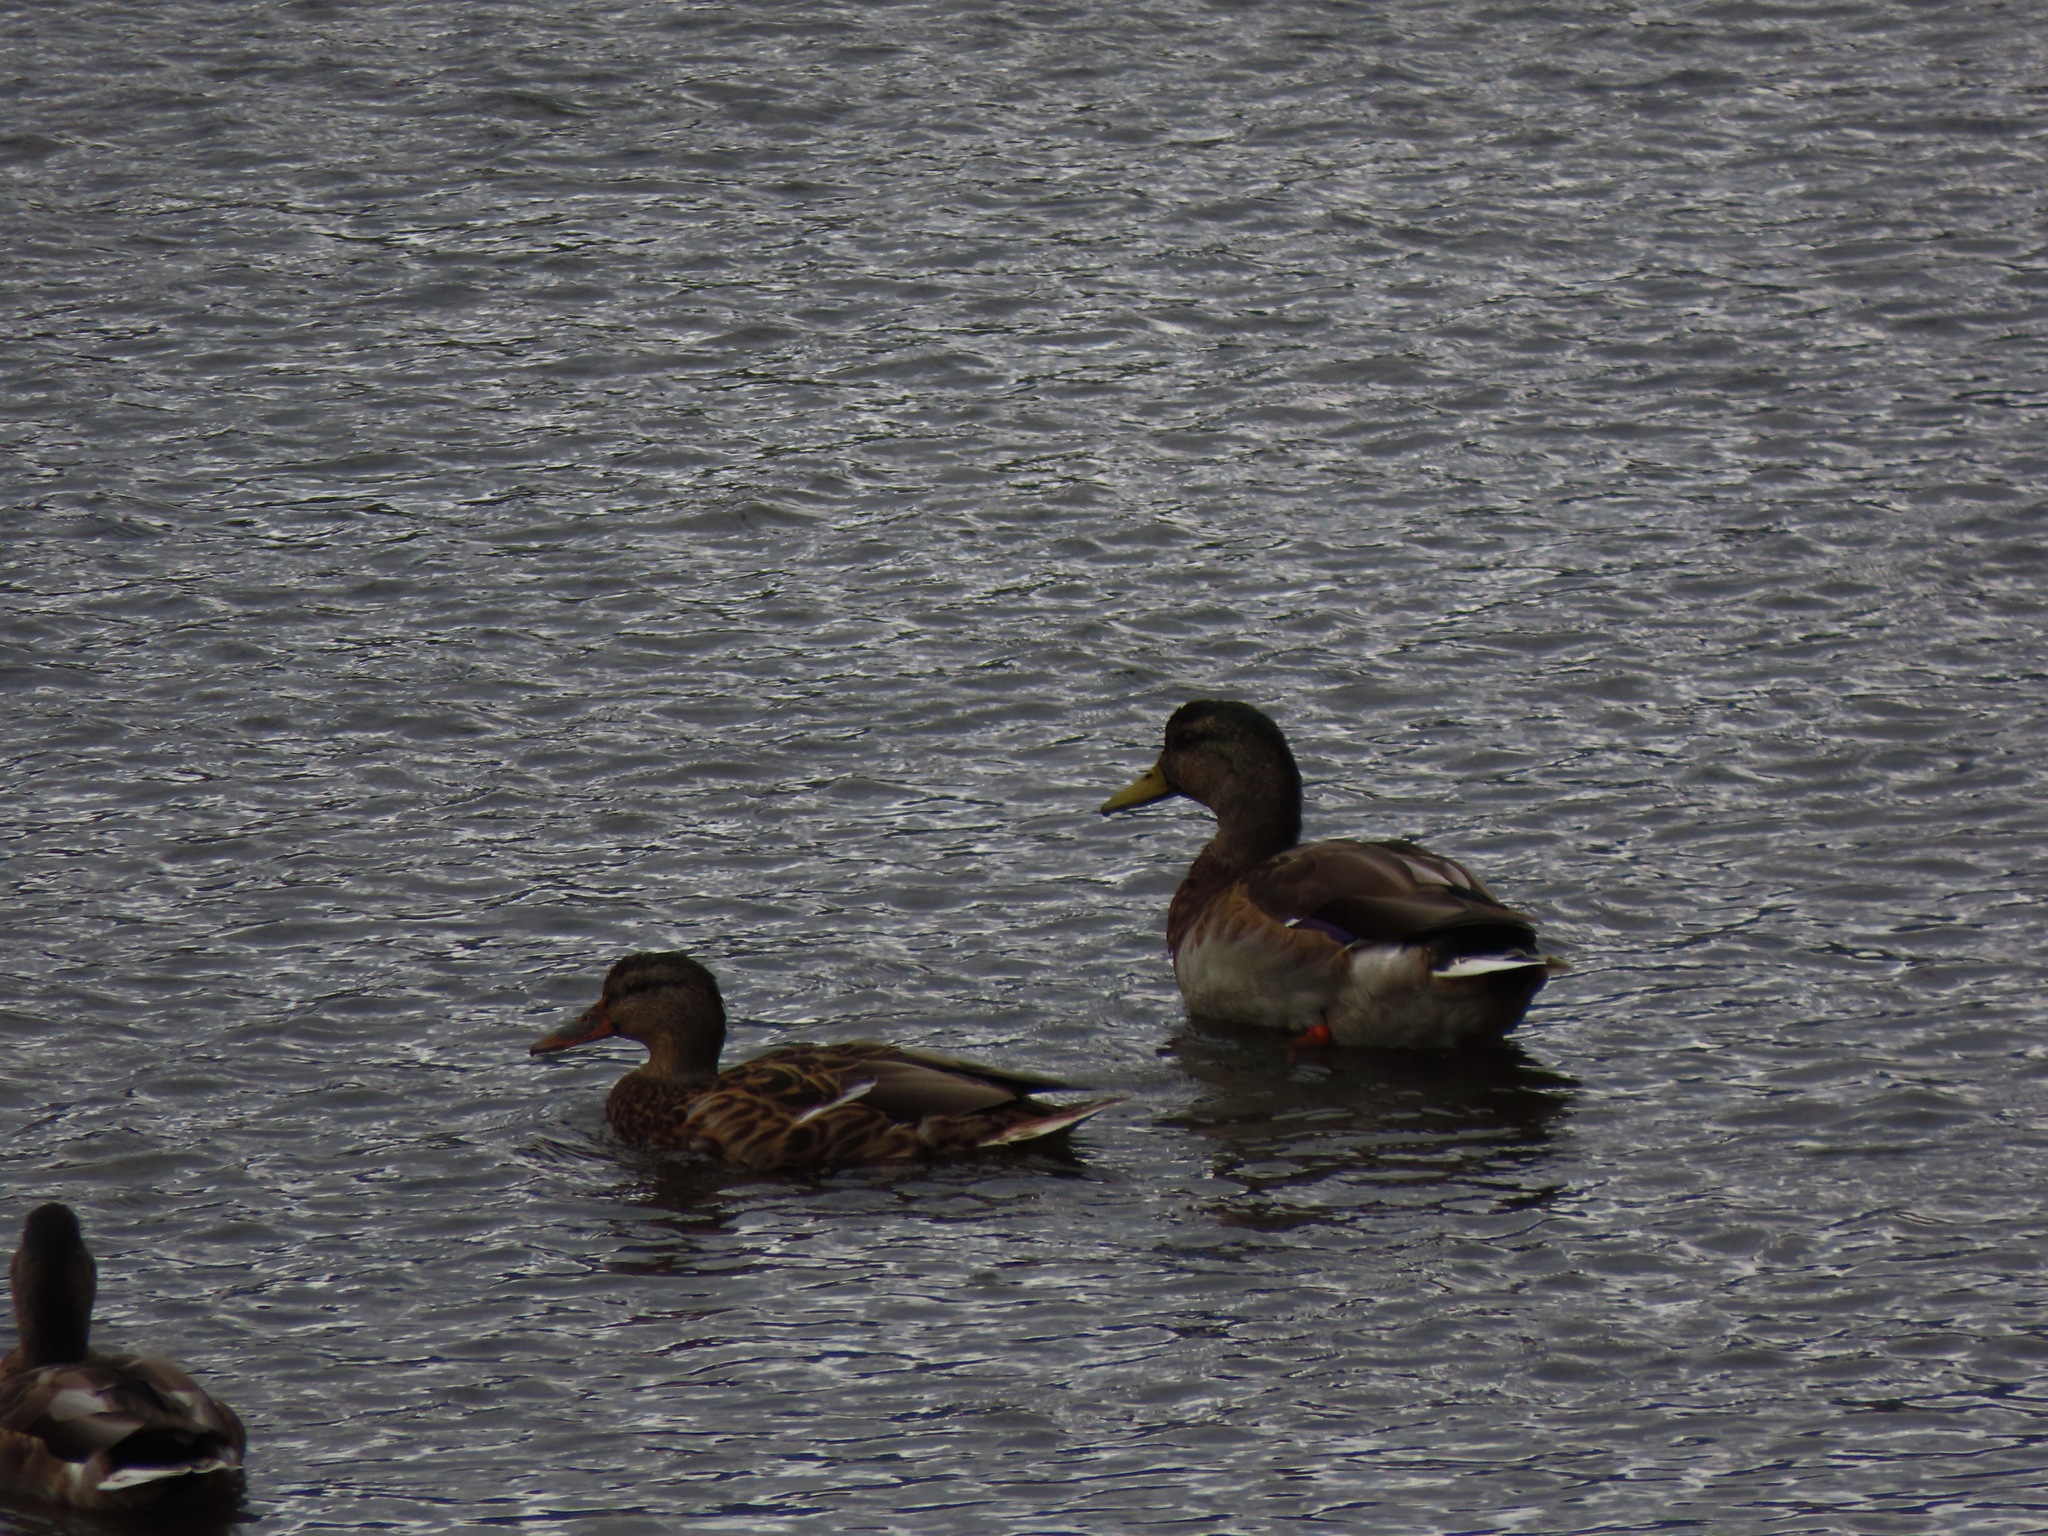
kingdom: Animalia
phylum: Chordata
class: Aves
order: Anseriformes
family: Anatidae
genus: Anas
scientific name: Anas platyrhynchos
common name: Mallard
